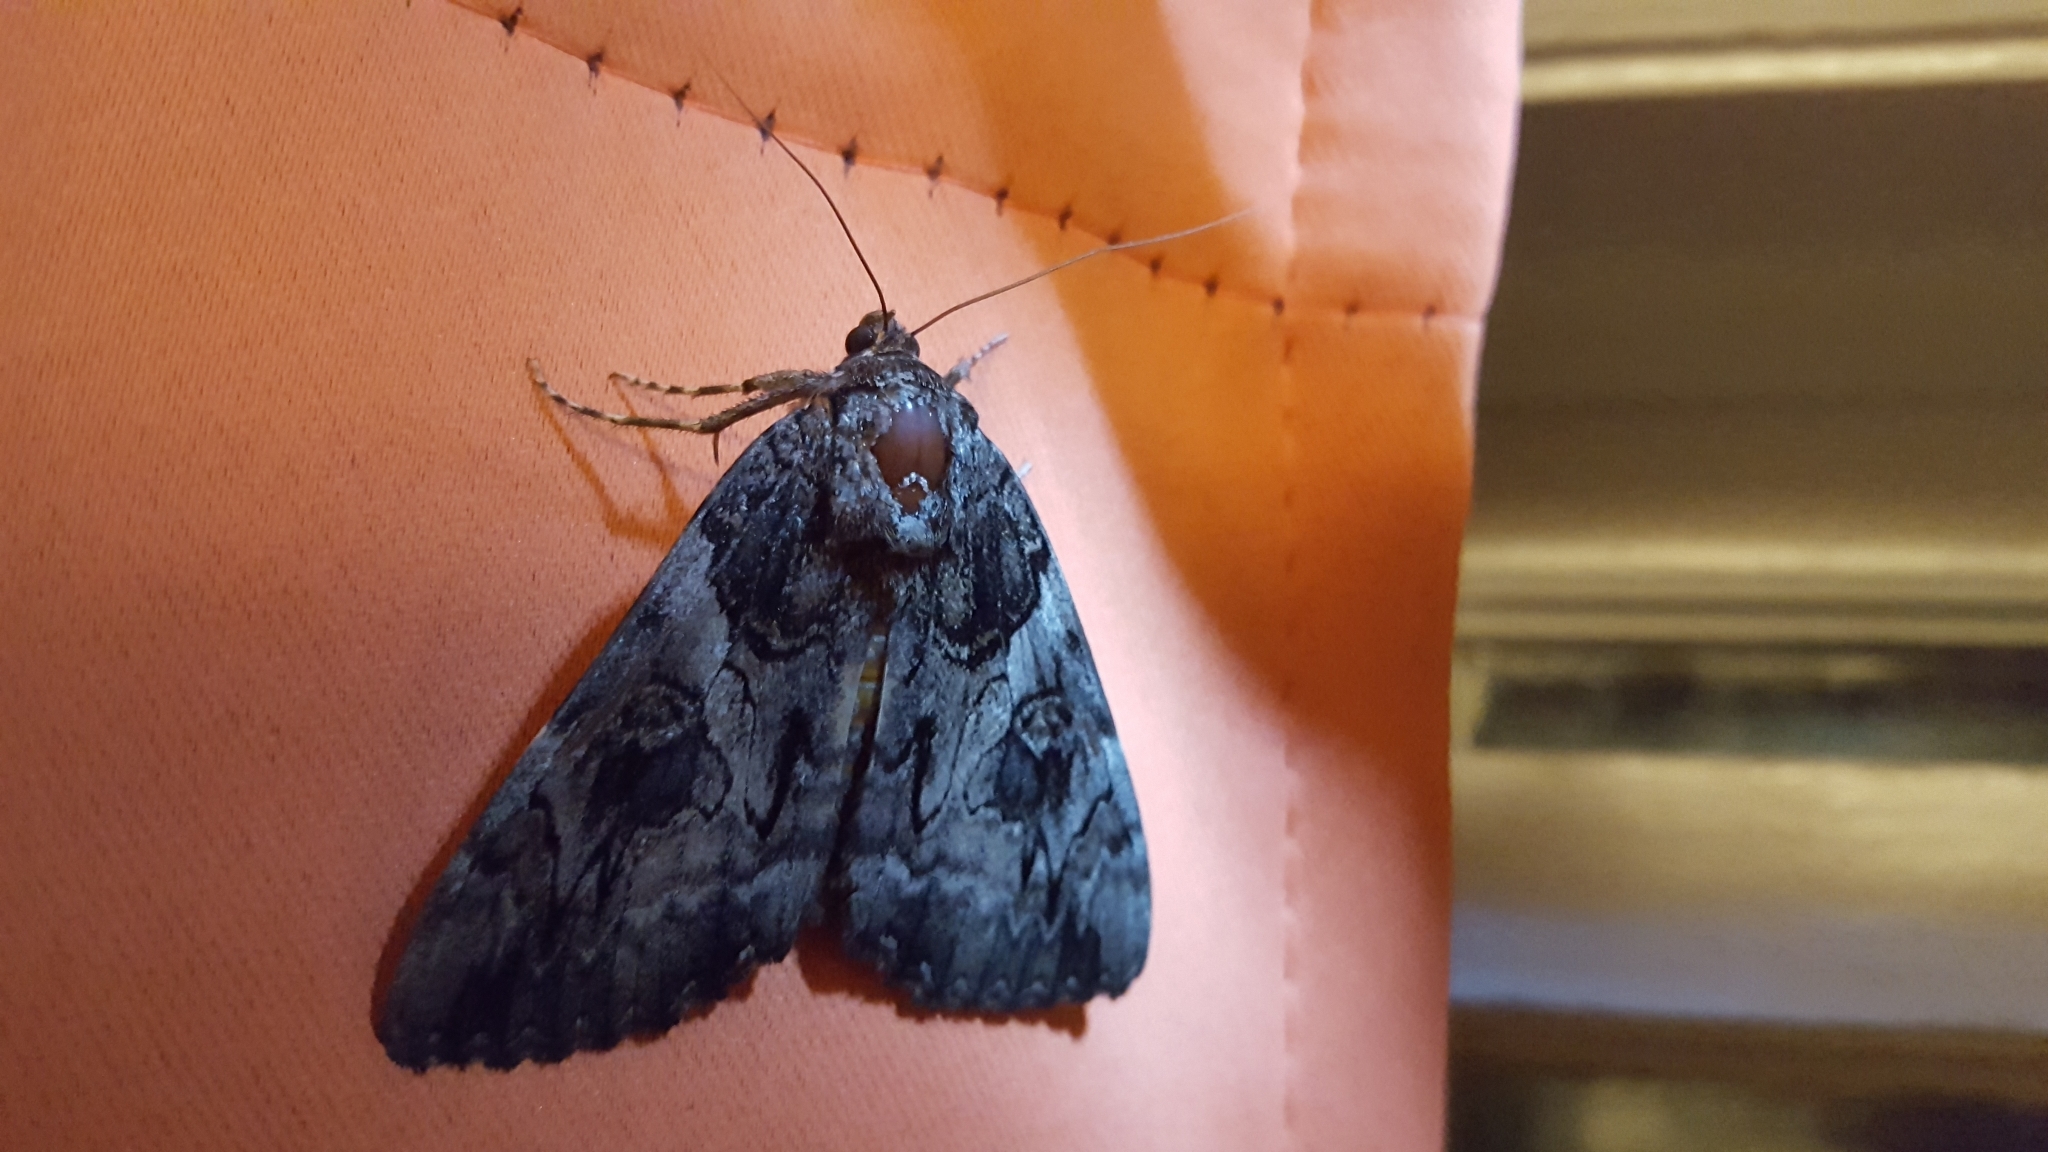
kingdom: Animalia
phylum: Arthropoda
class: Insecta
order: Lepidoptera
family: Erebidae
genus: Catocala
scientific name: Catocala piatrix
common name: The penitent underwing
